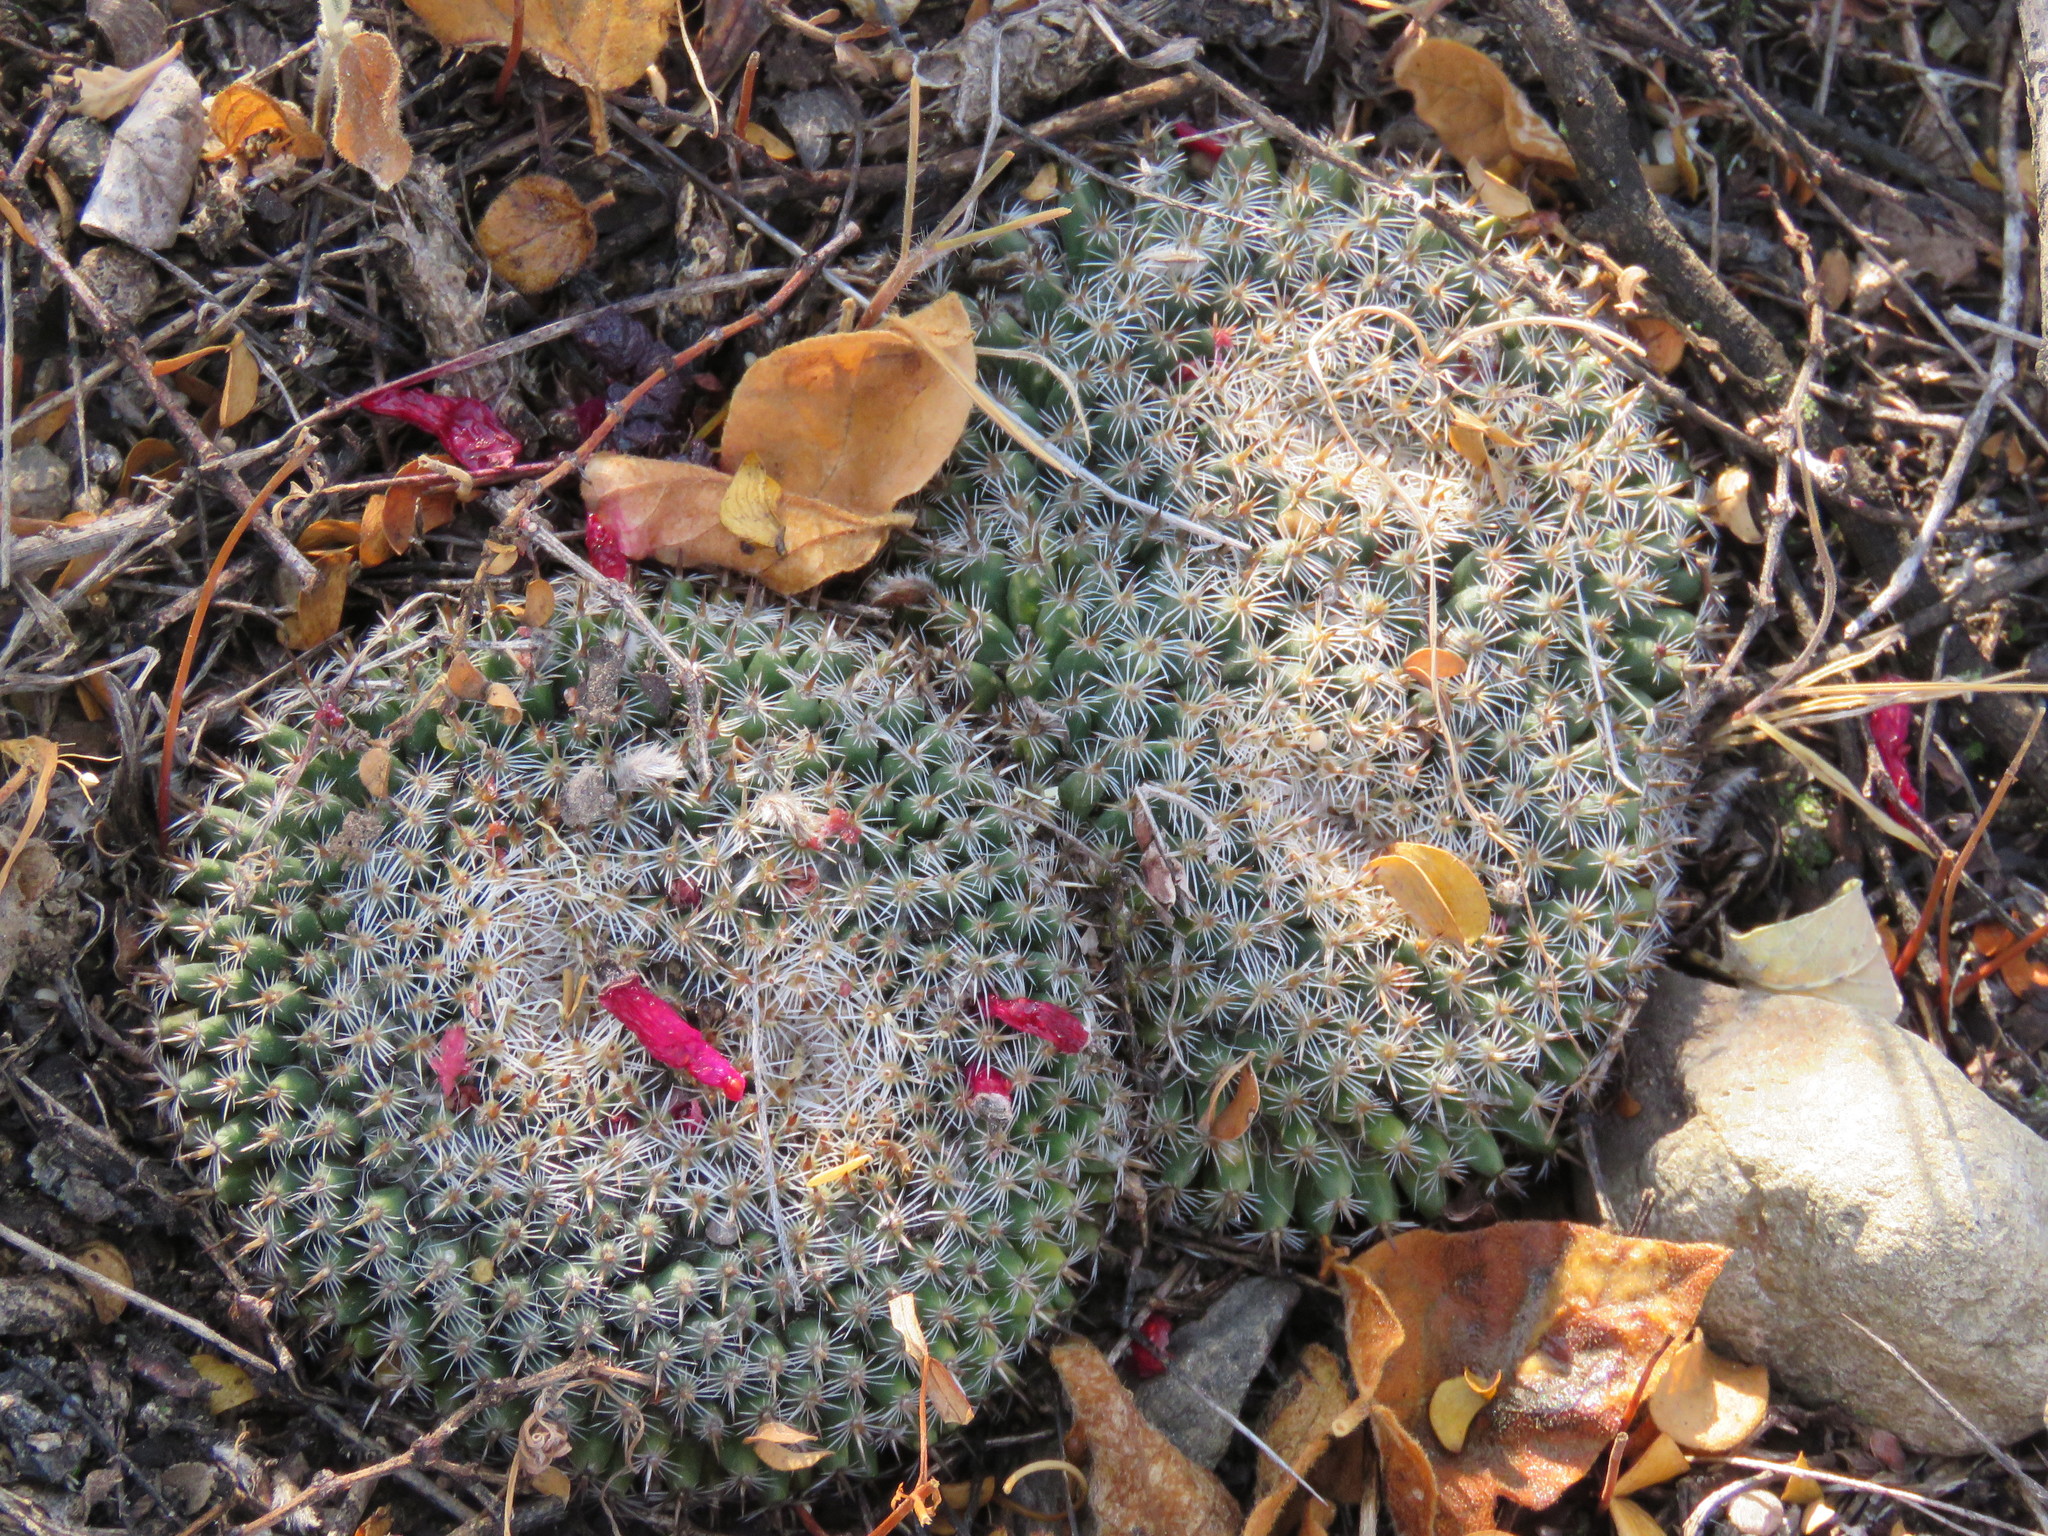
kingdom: Plantae
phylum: Tracheophyta
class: Magnoliopsida
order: Caryophyllales
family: Cactaceae
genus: Mammillaria
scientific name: Mammillaria perbella
